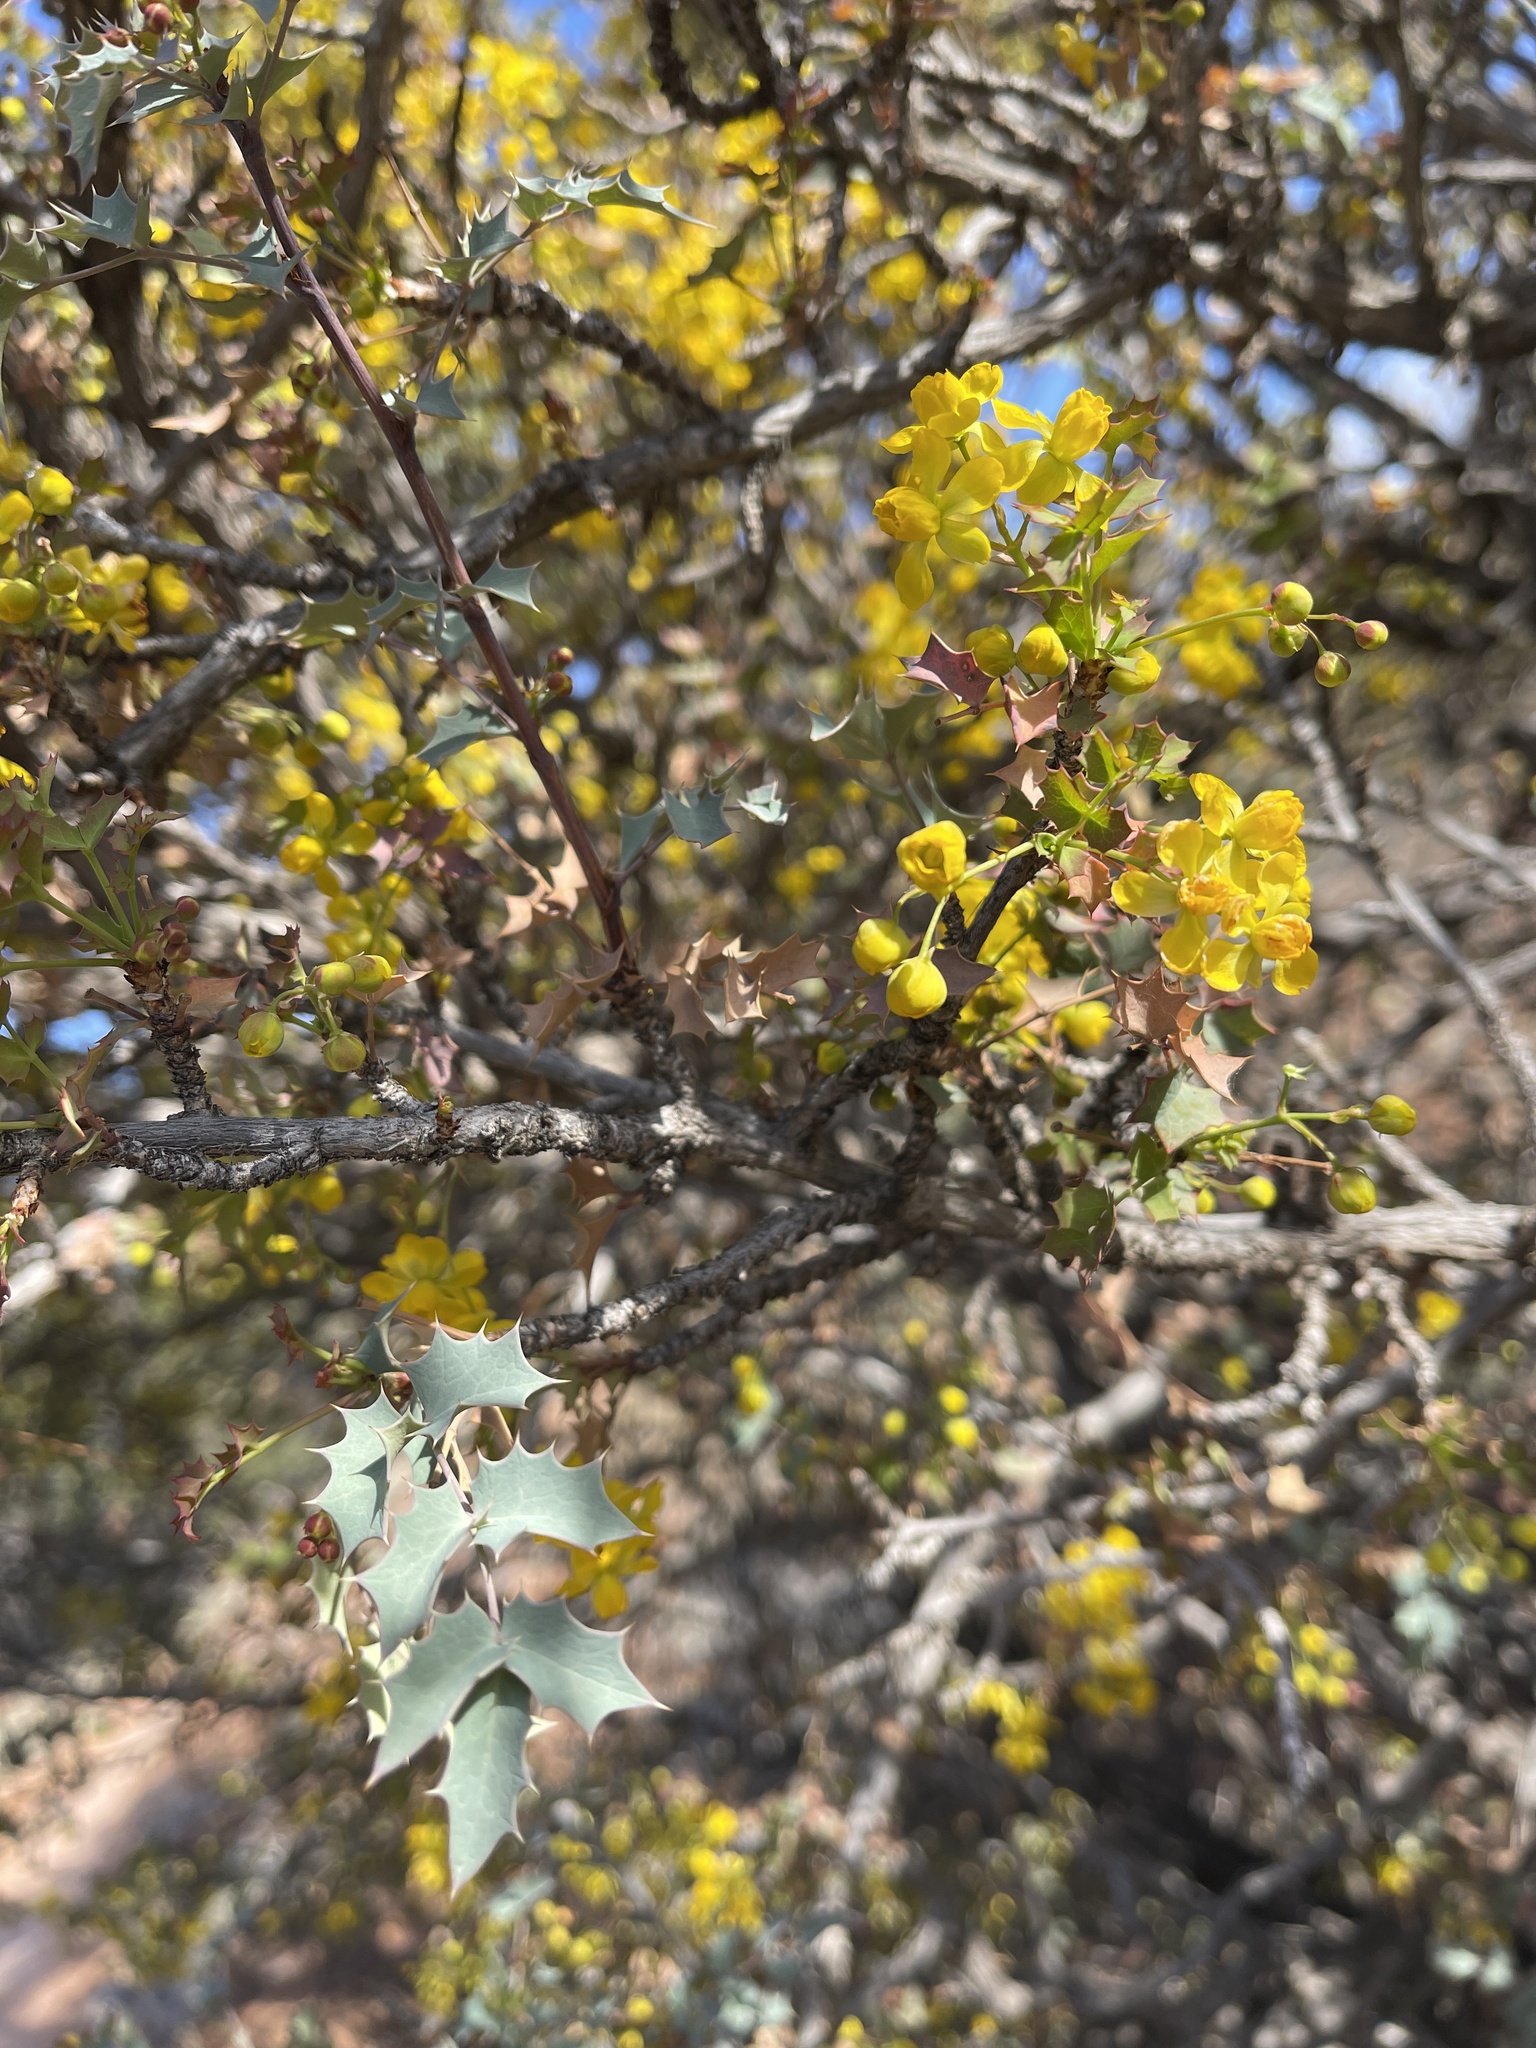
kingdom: Plantae
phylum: Tracheophyta
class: Magnoliopsida
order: Ranunculales
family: Berberidaceae
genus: Alloberberis
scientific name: Alloberberis fremontii
